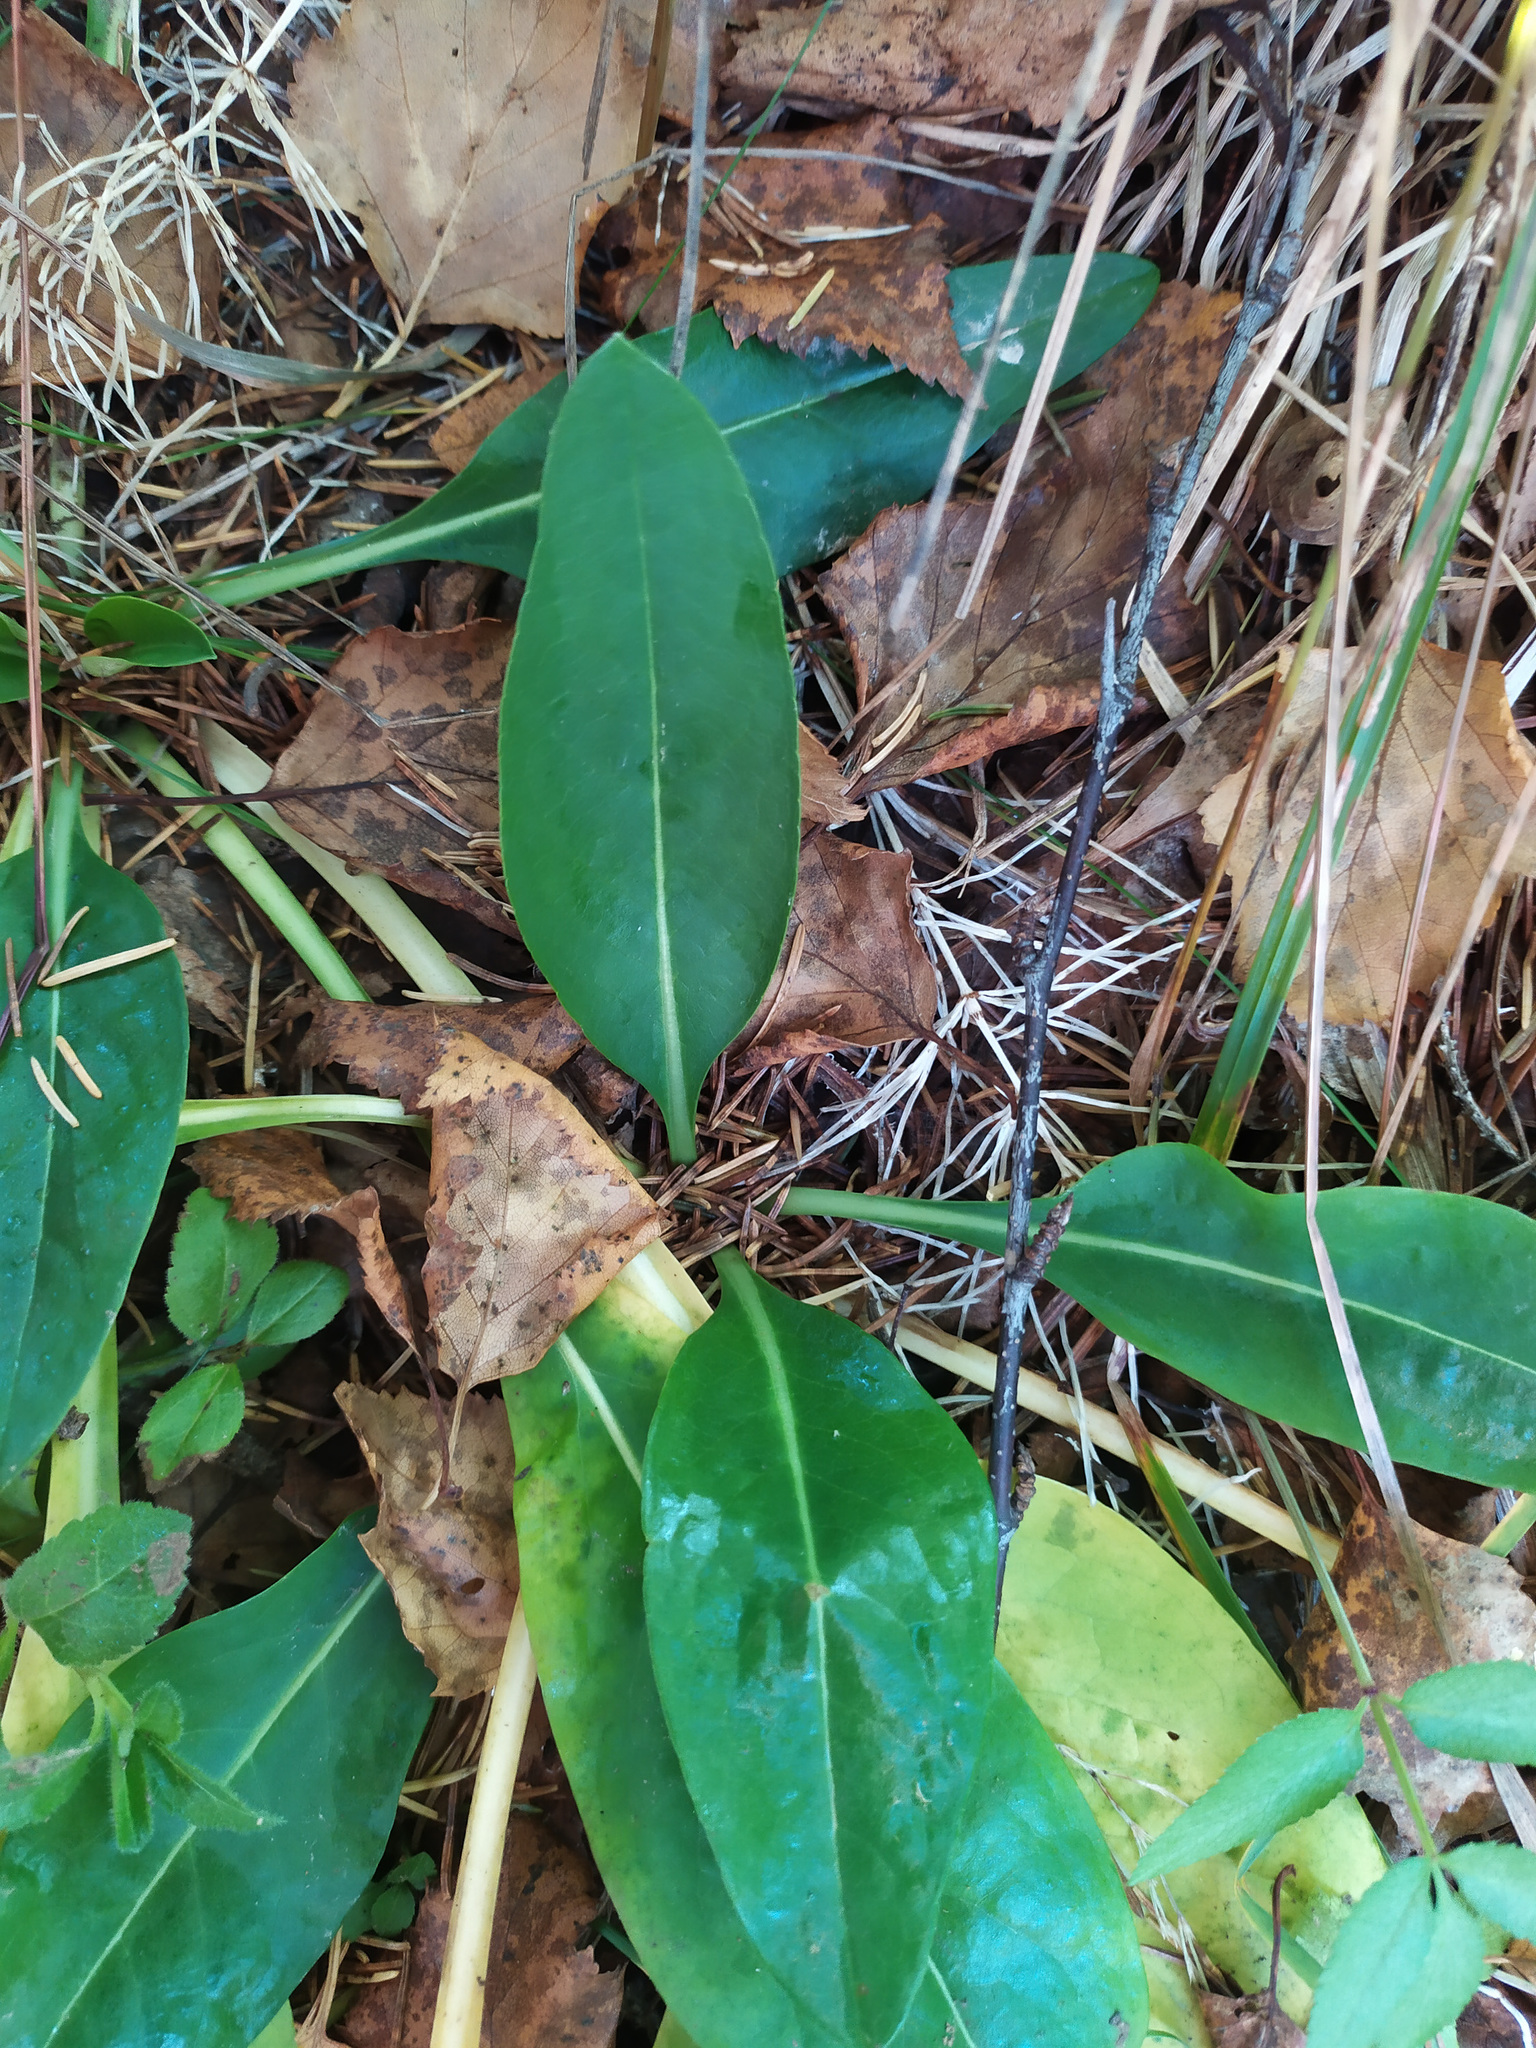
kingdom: Plantae
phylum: Tracheophyta
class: Magnoliopsida
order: Dipsacales
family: Caprifoliaceae
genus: Succisa
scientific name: Succisa pratensis
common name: Devil's-bit
